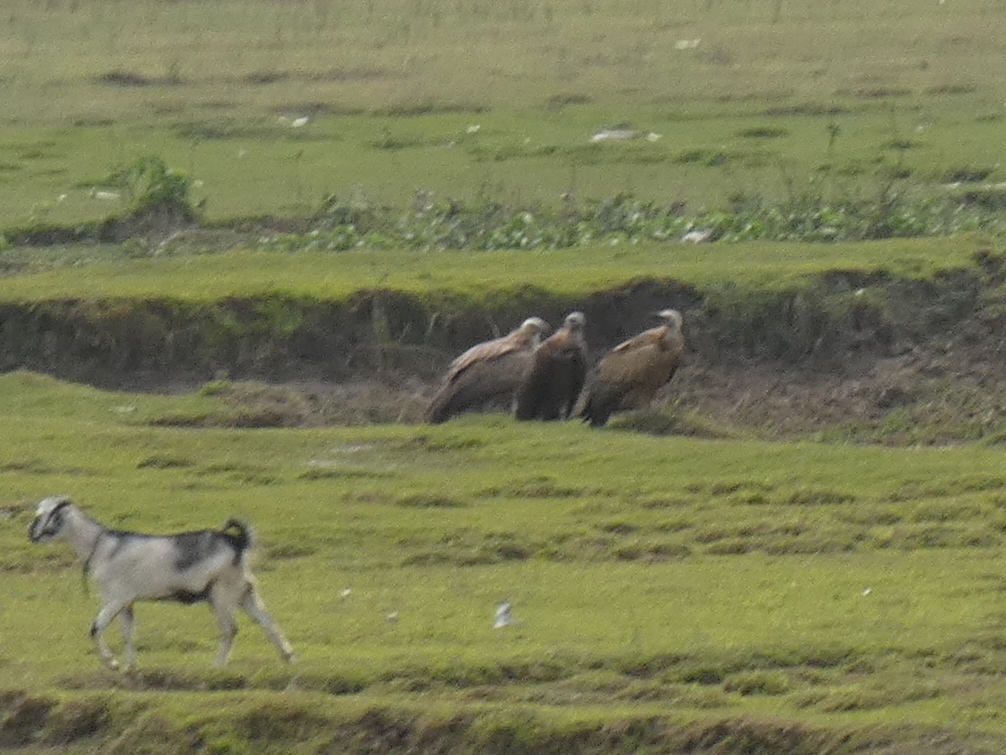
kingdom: Animalia
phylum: Chordata
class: Aves
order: Accipitriformes
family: Accipitridae
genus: Gyps
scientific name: Gyps himalayensis
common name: Himalayan griffon
